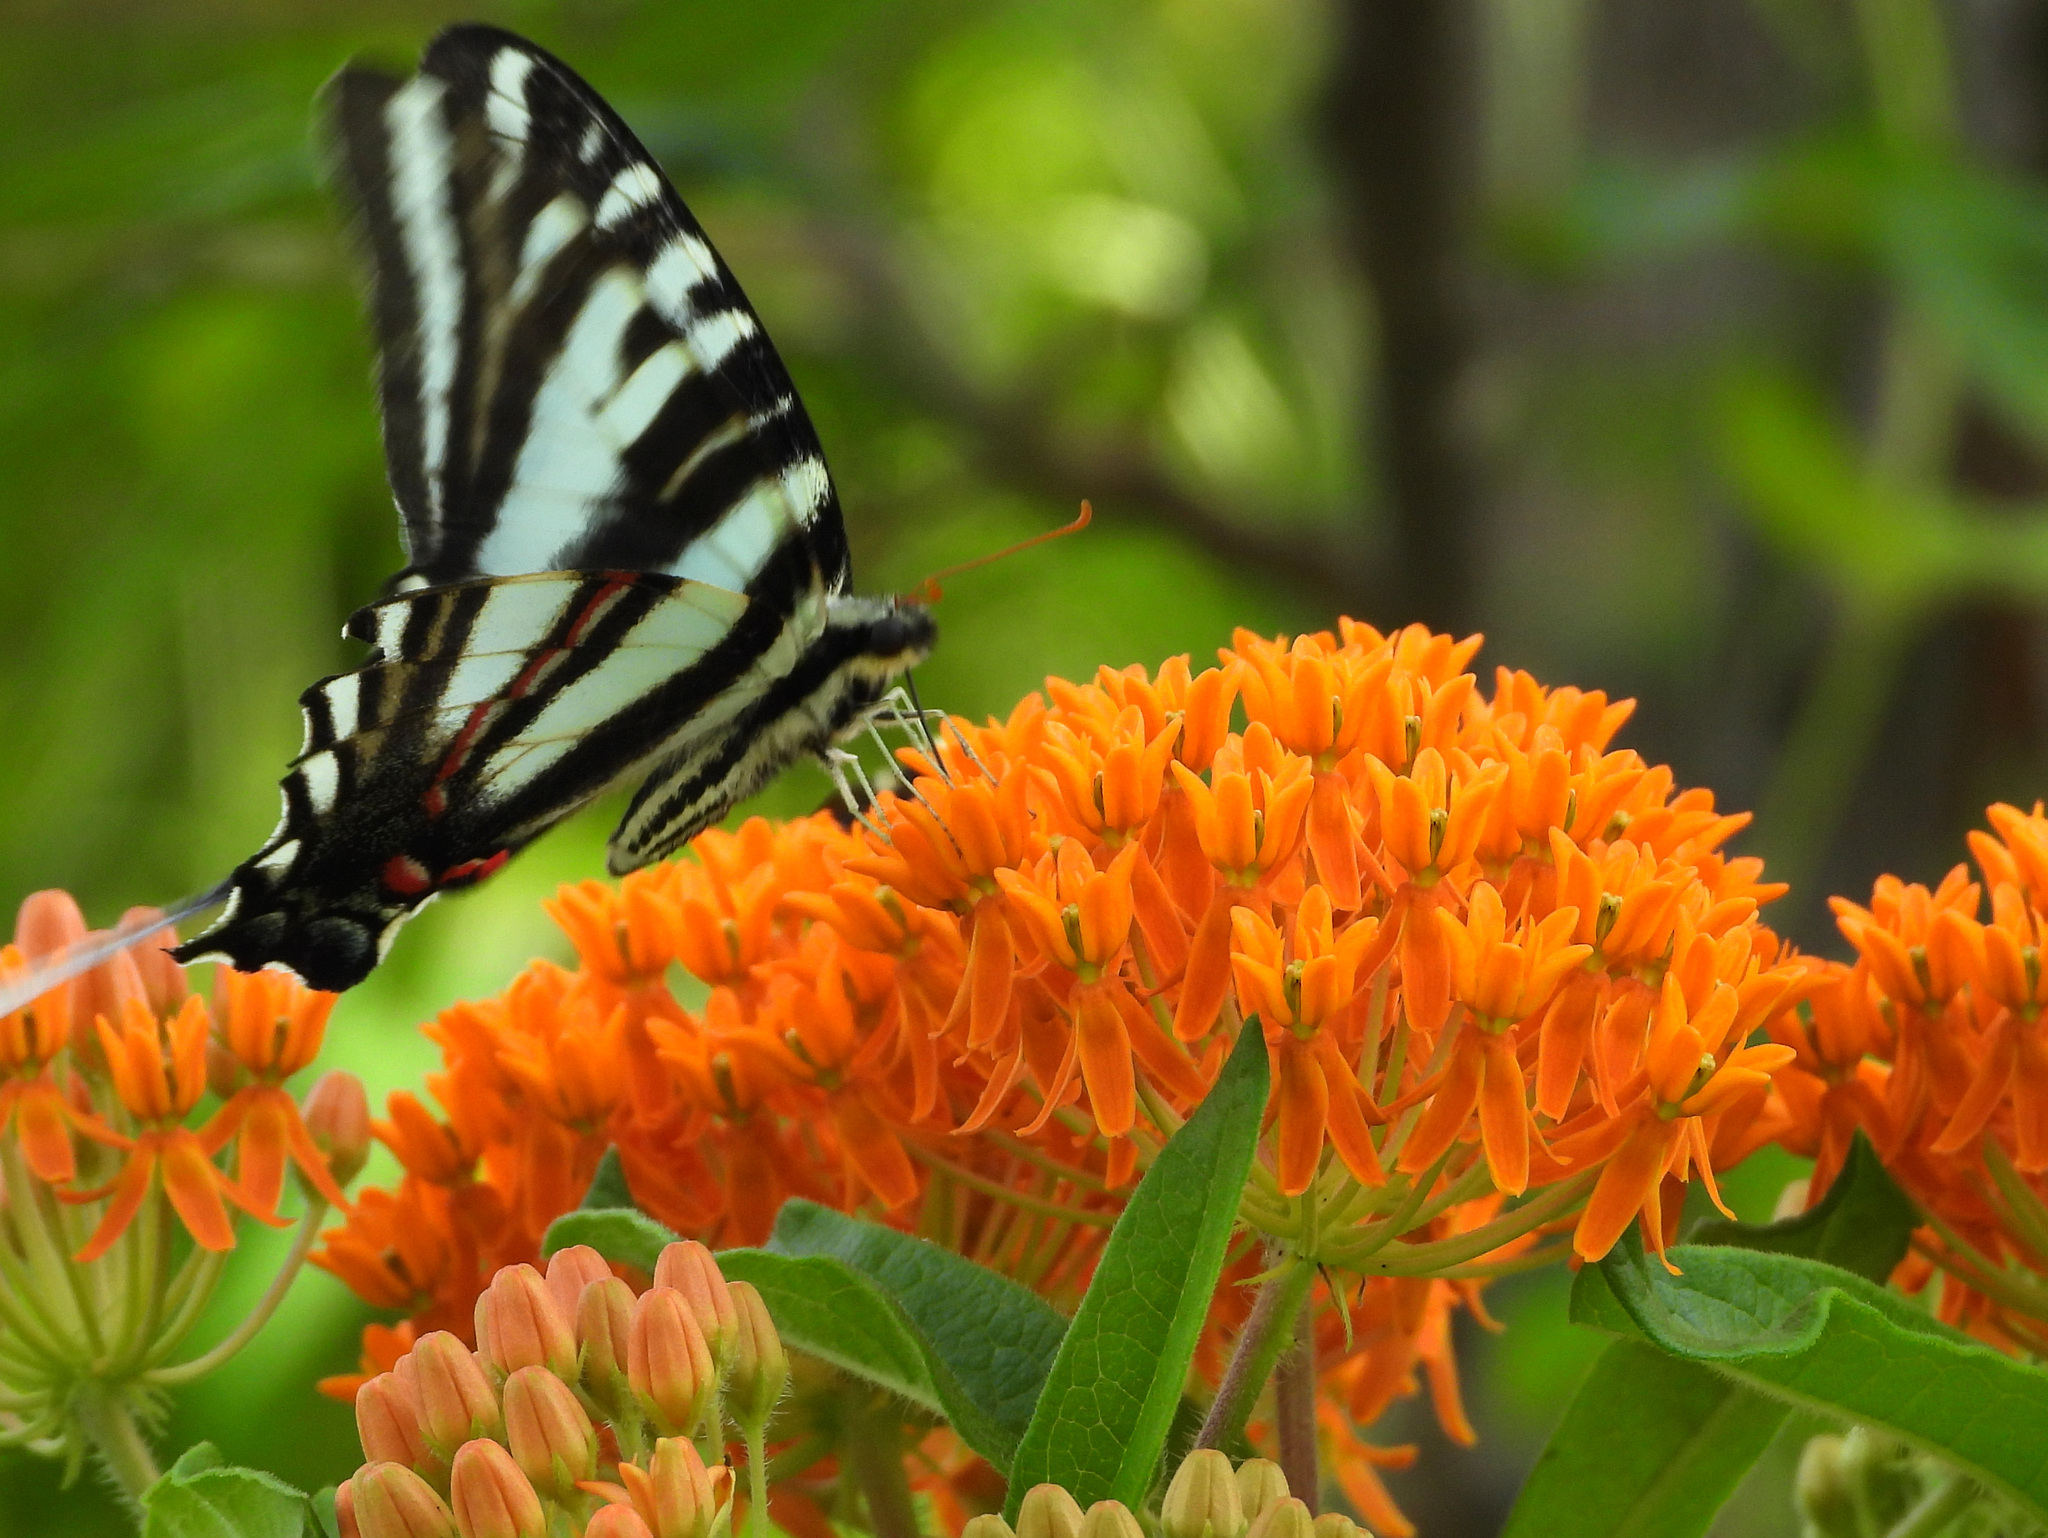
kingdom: Animalia
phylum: Arthropoda
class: Insecta
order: Lepidoptera
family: Papilionidae
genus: Protographium
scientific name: Protographium marcellus
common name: Zebra swallowtail
